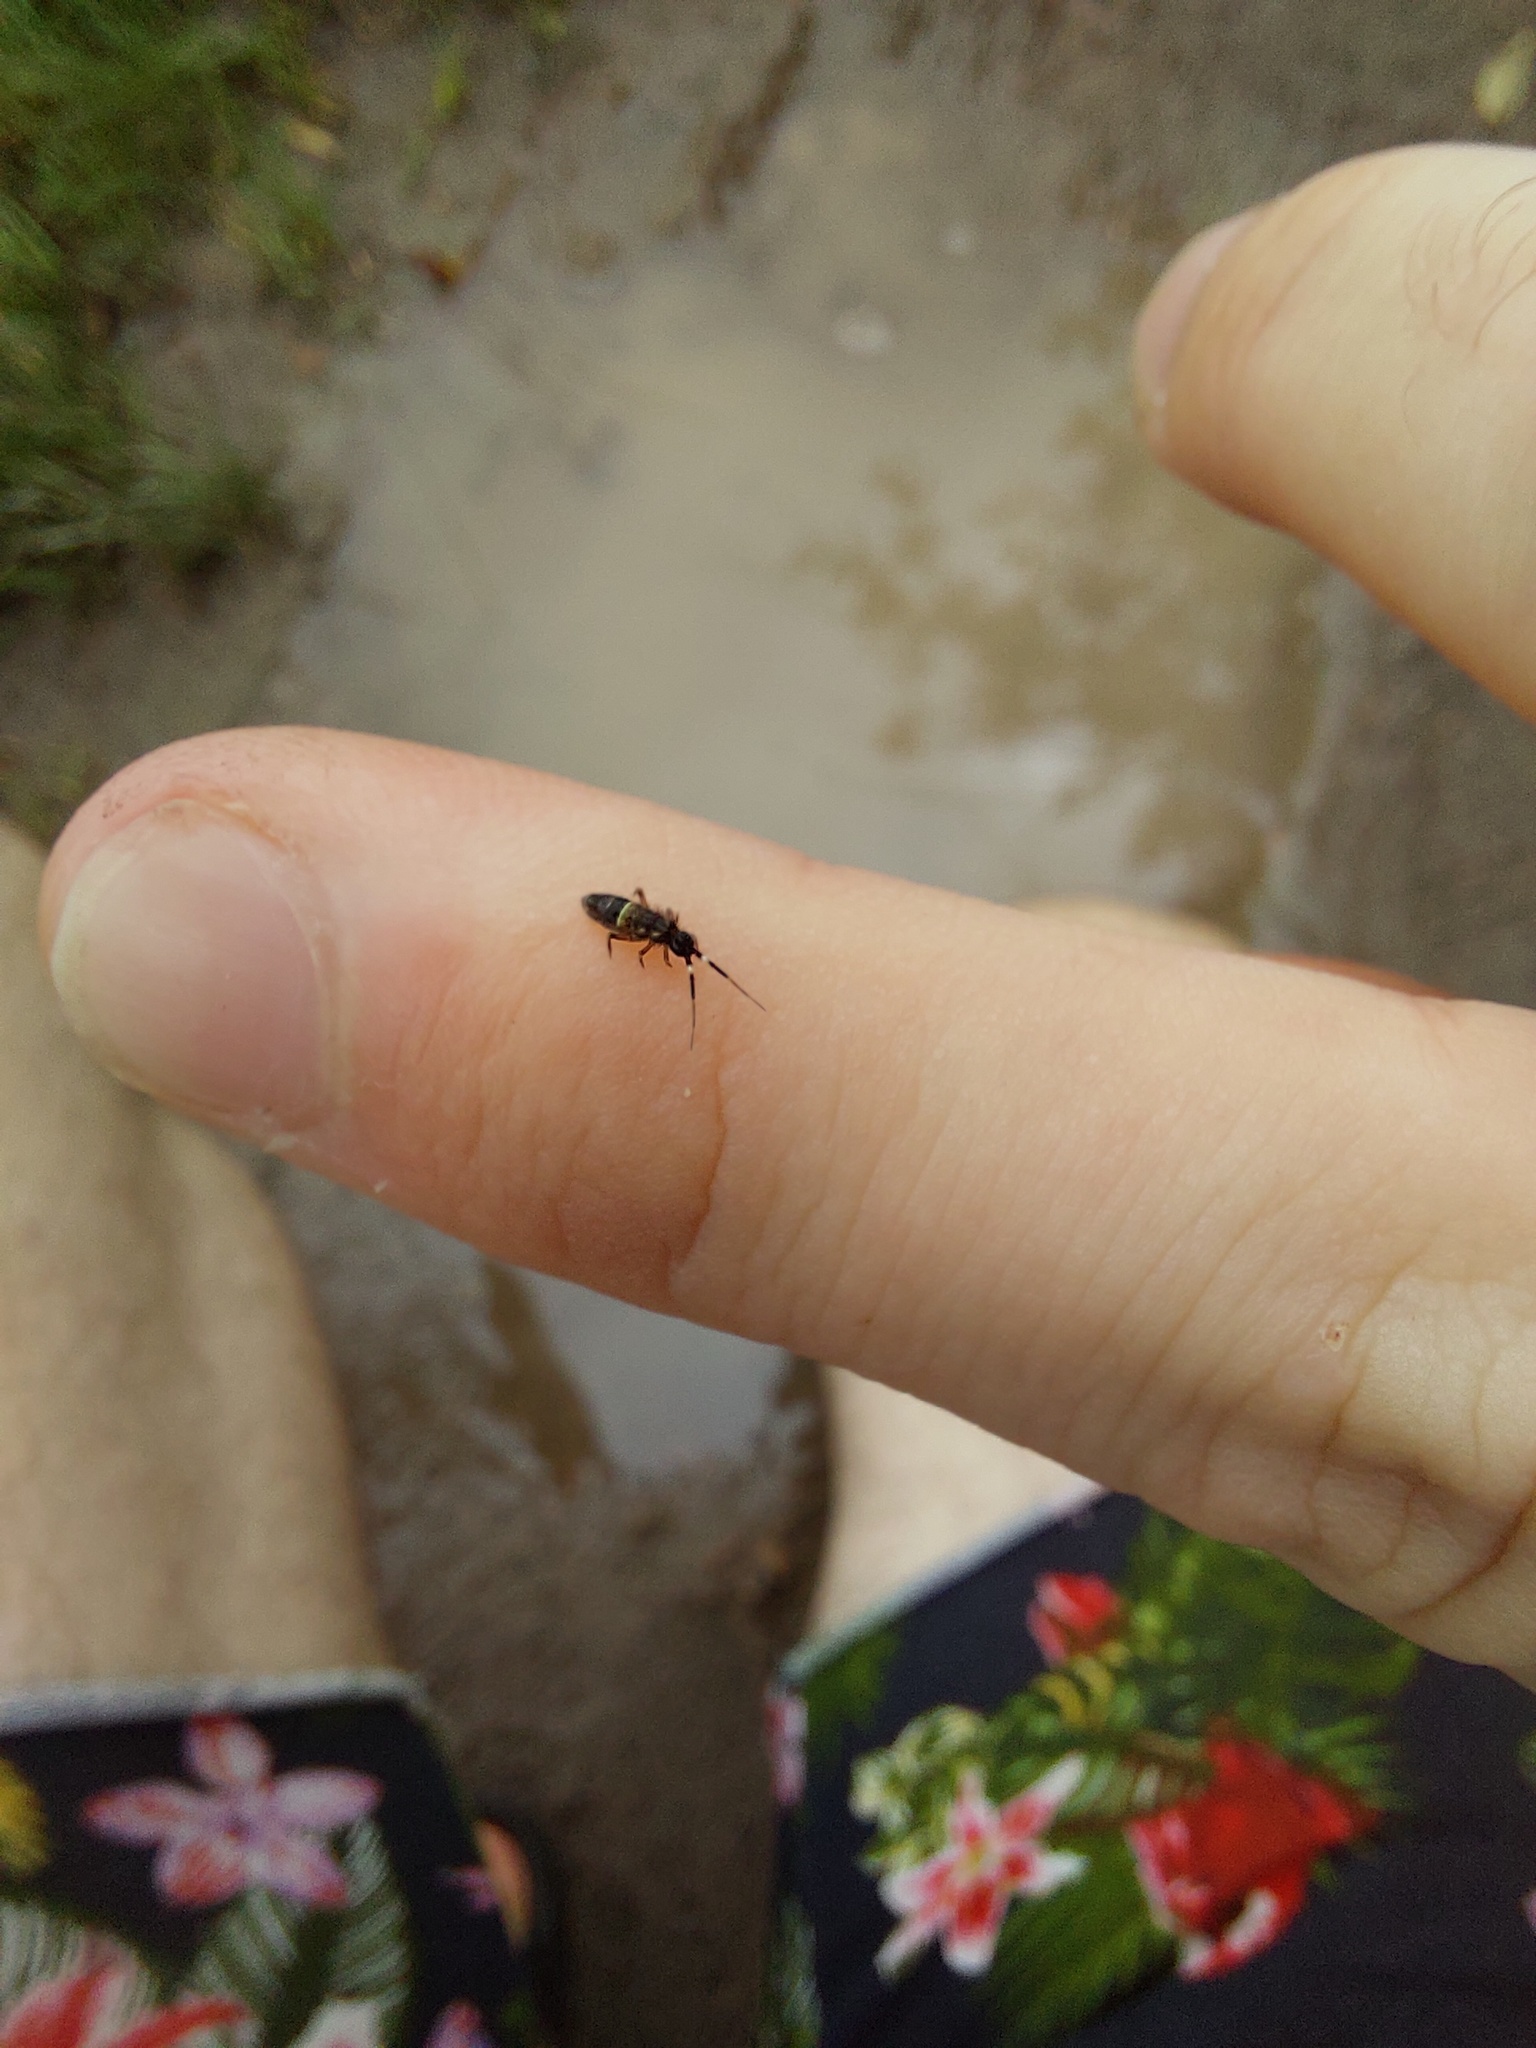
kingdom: Animalia
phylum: Arthropoda
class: Collembola
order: Entomobryomorpha
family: Orchesellidae
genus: Orchesella
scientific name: Orchesella cincta
